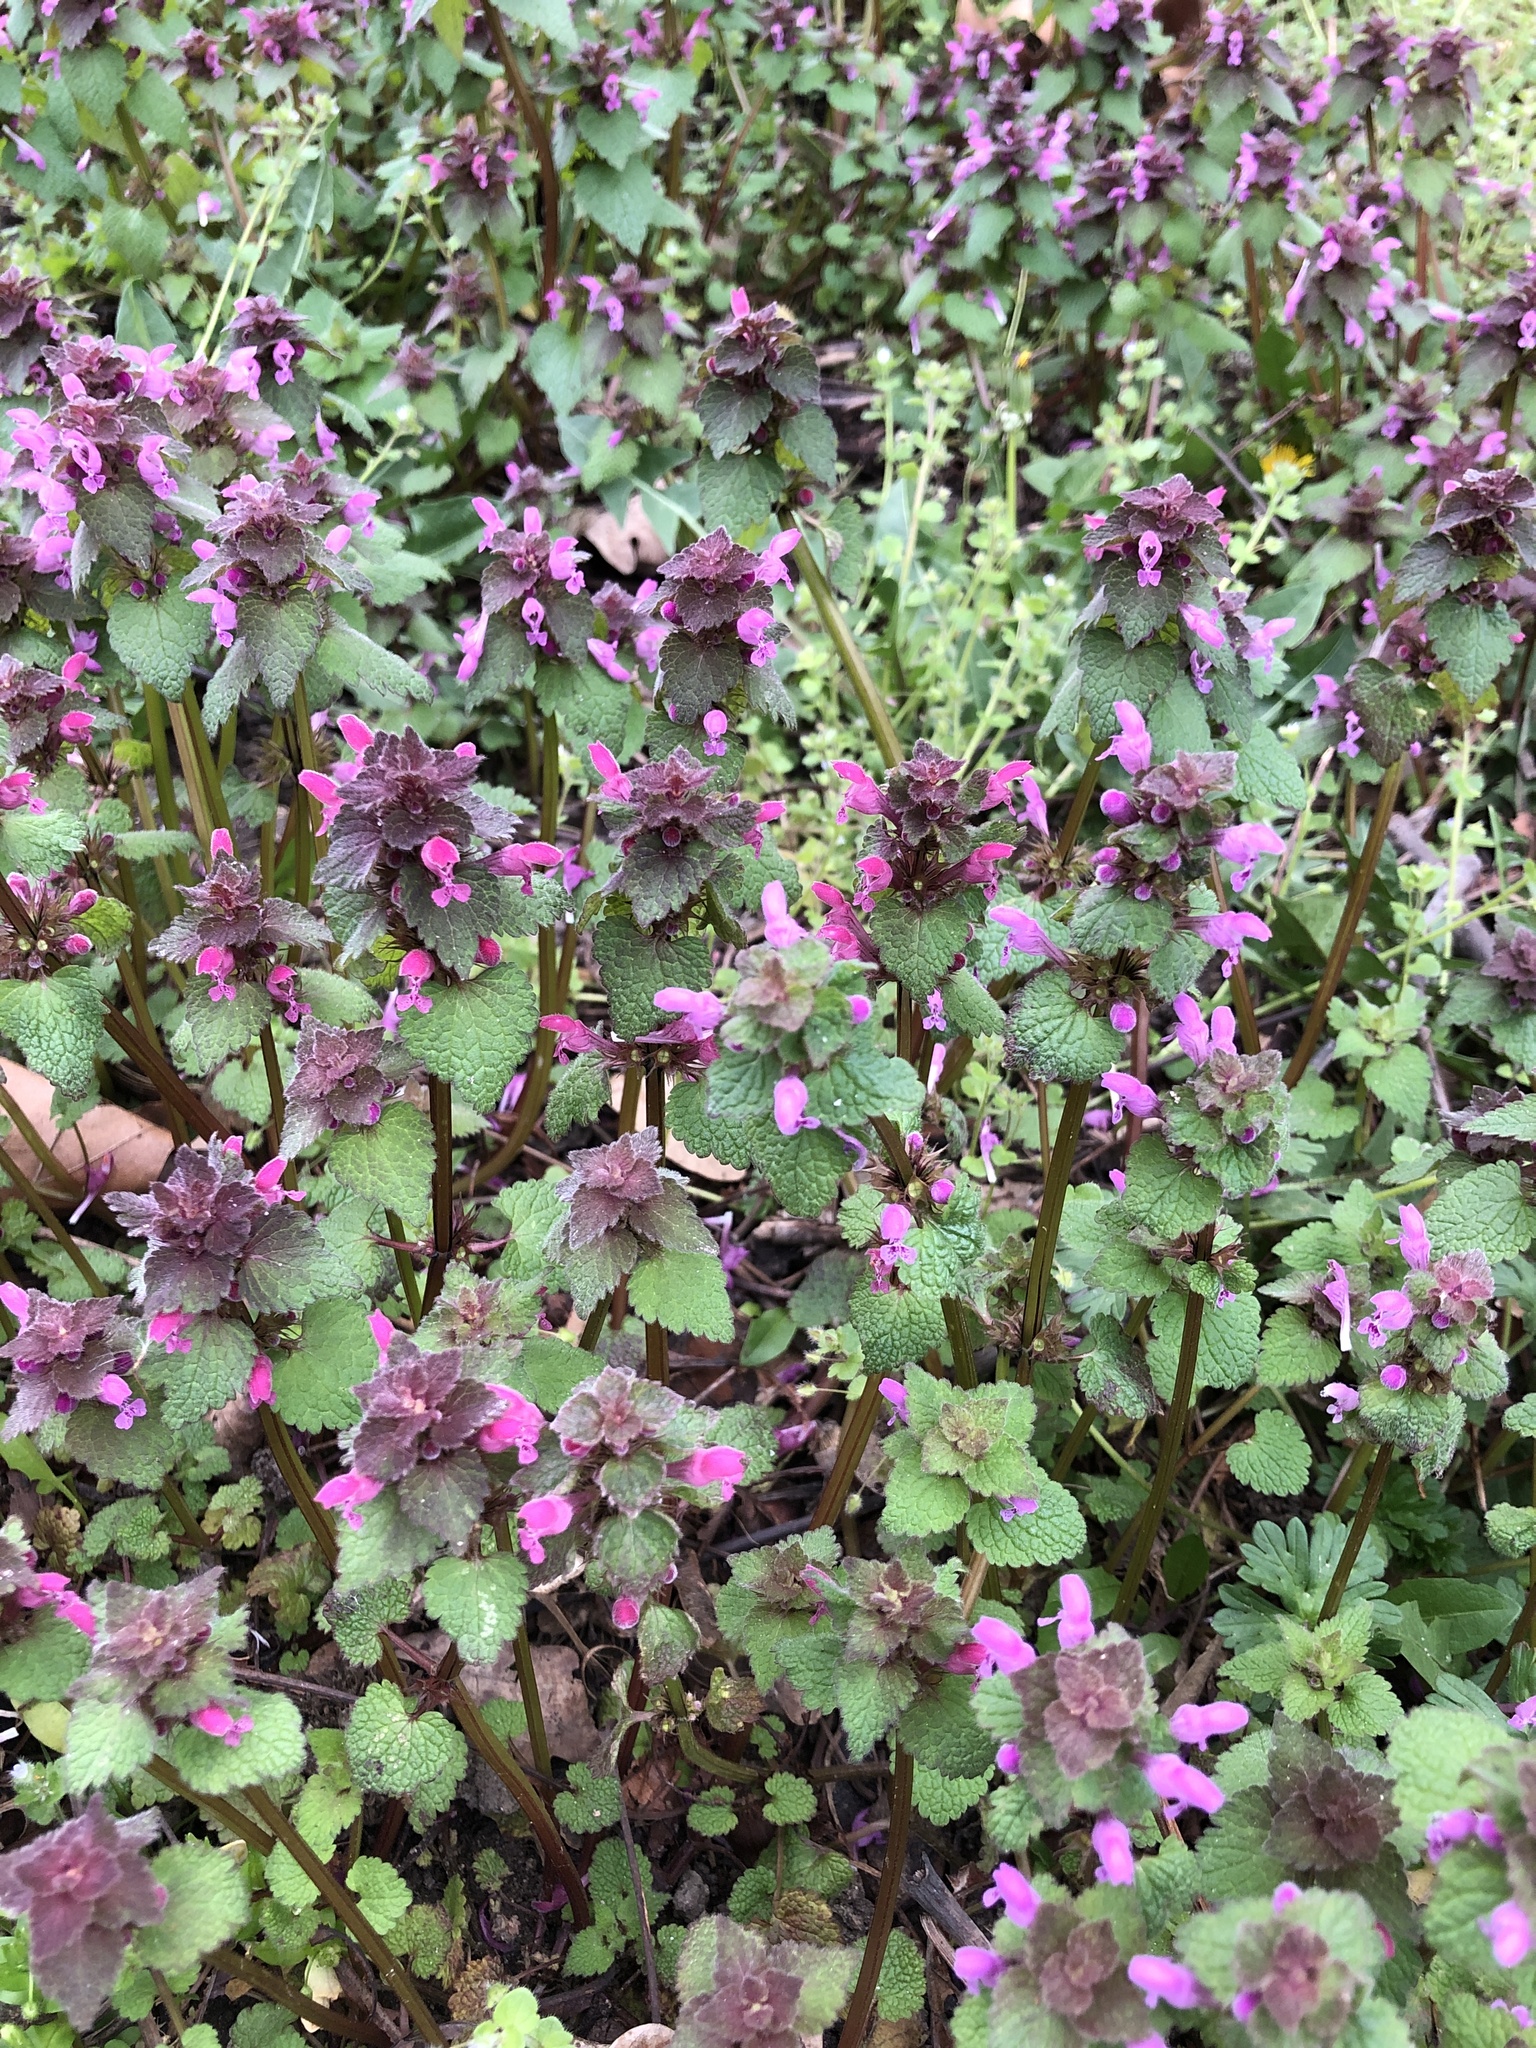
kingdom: Plantae
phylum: Tracheophyta
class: Magnoliopsida
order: Lamiales
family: Lamiaceae
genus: Lamium
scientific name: Lamium purpureum
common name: Red dead-nettle
